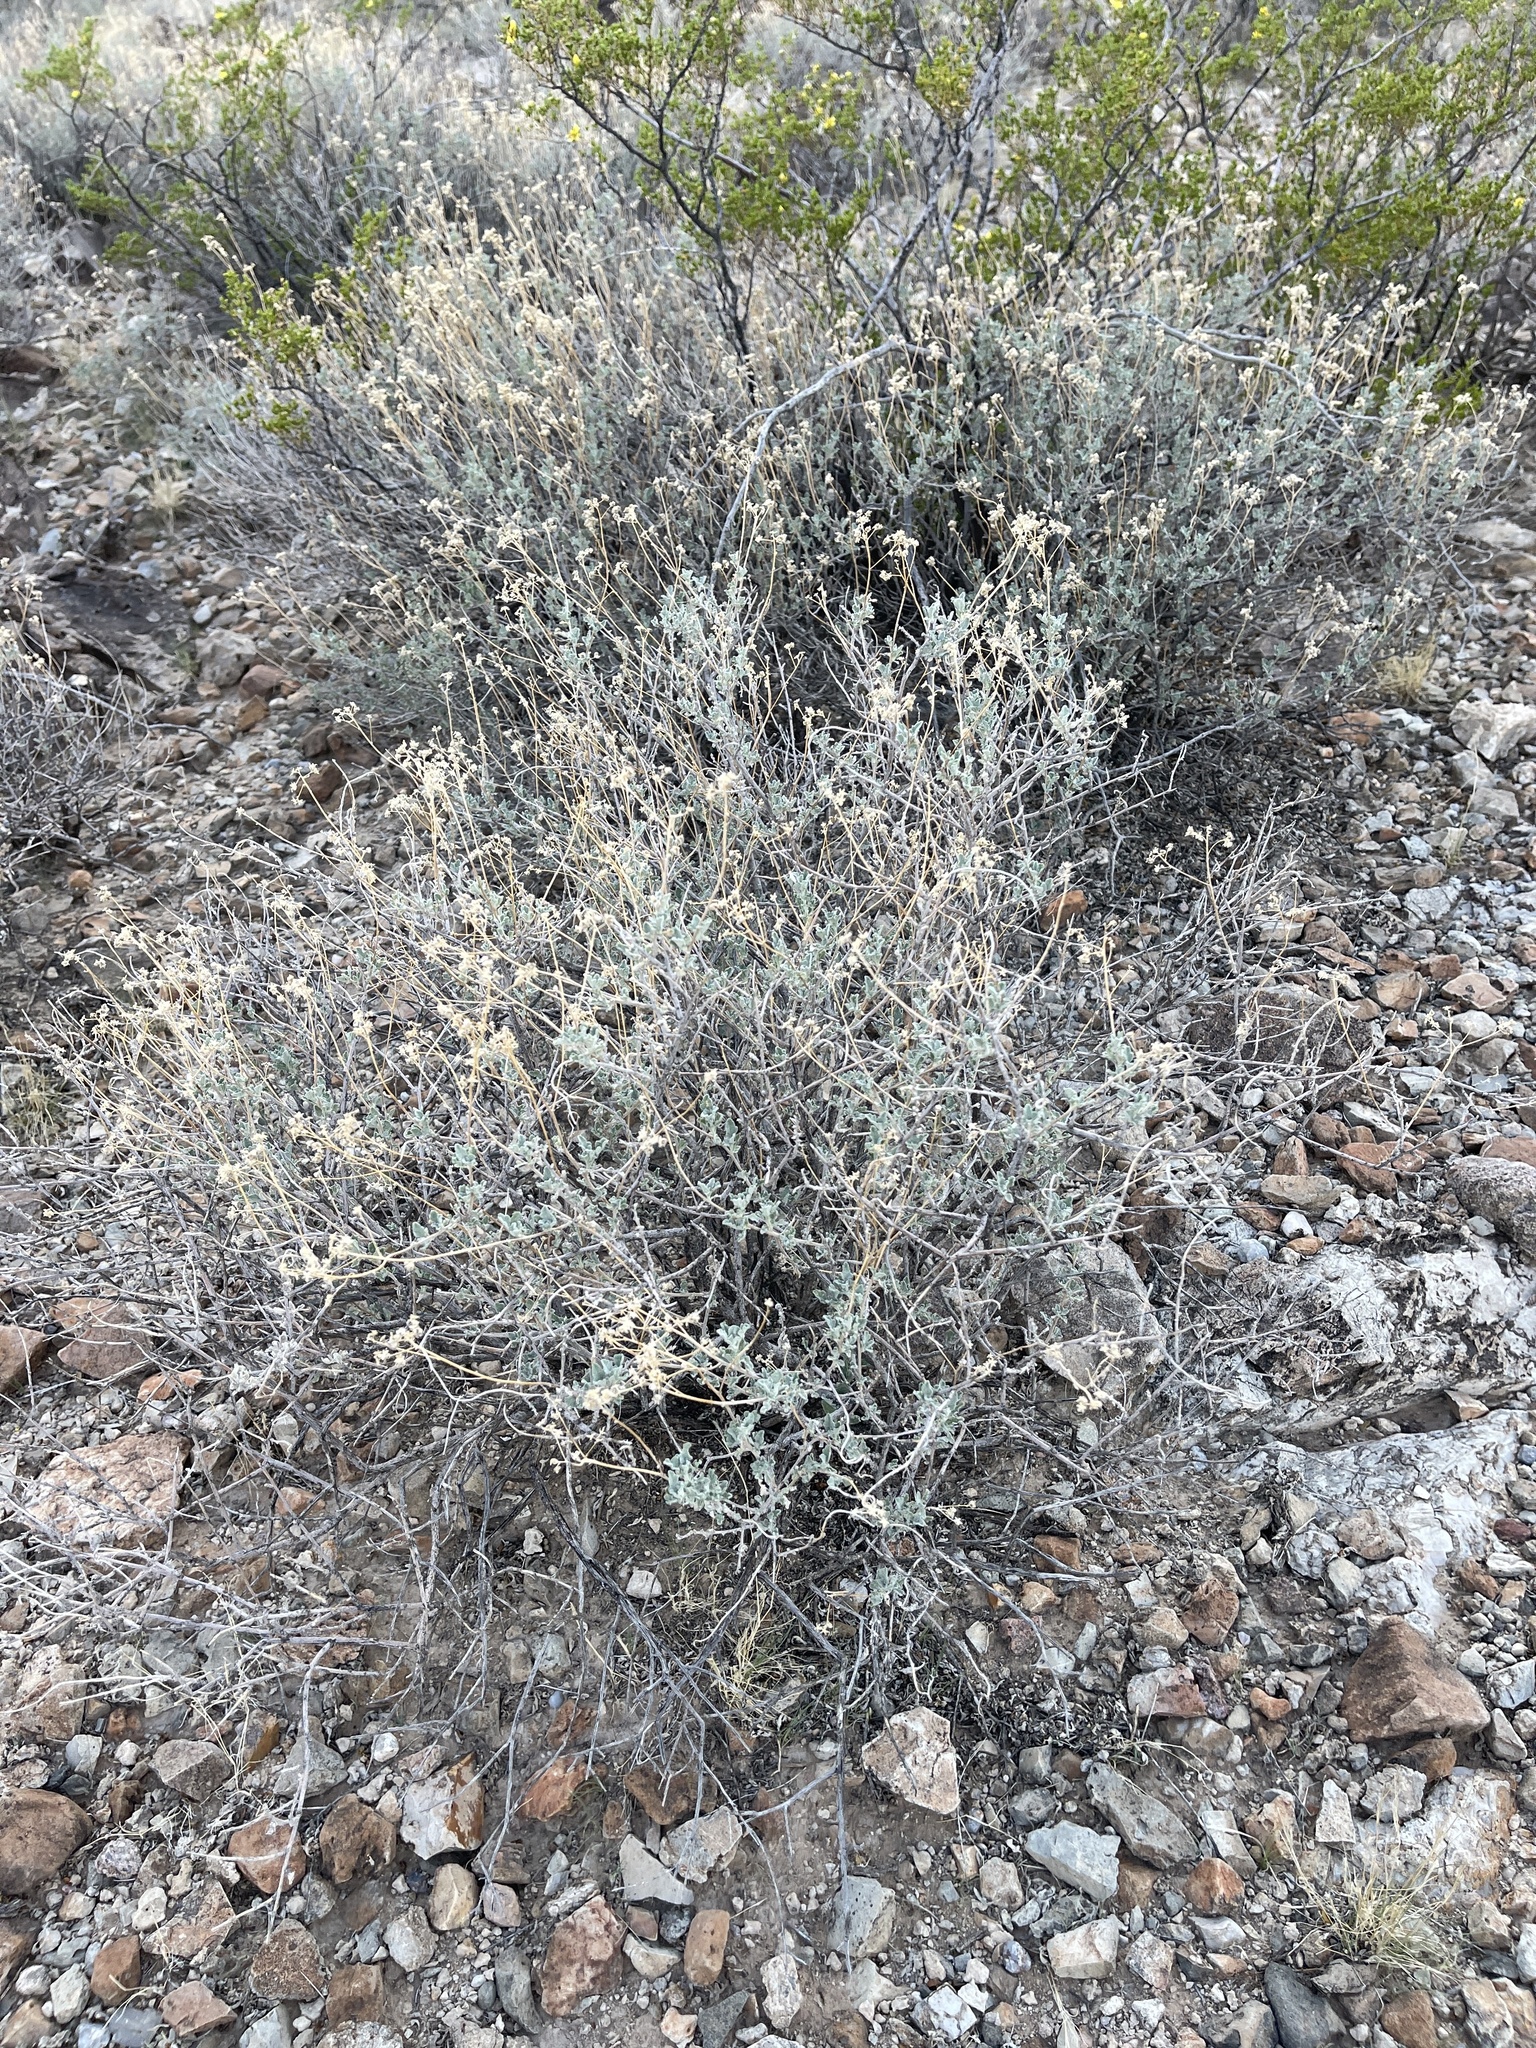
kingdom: Plantae
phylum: Tracheophyta
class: Magnoliopsida
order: Asterales
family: Asteraceae
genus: Parthenium
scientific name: Parthenium incanum
